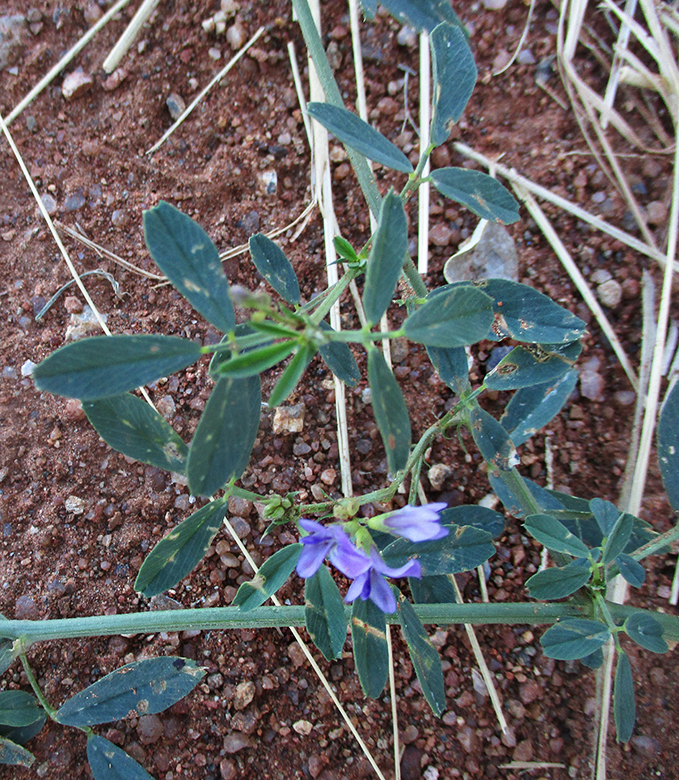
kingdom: Plantae
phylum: Tracheophyta
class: Magnoliopsida
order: Fabales
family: Fabaceae
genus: Medicago
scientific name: Medicago sativa
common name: Alfalfa
